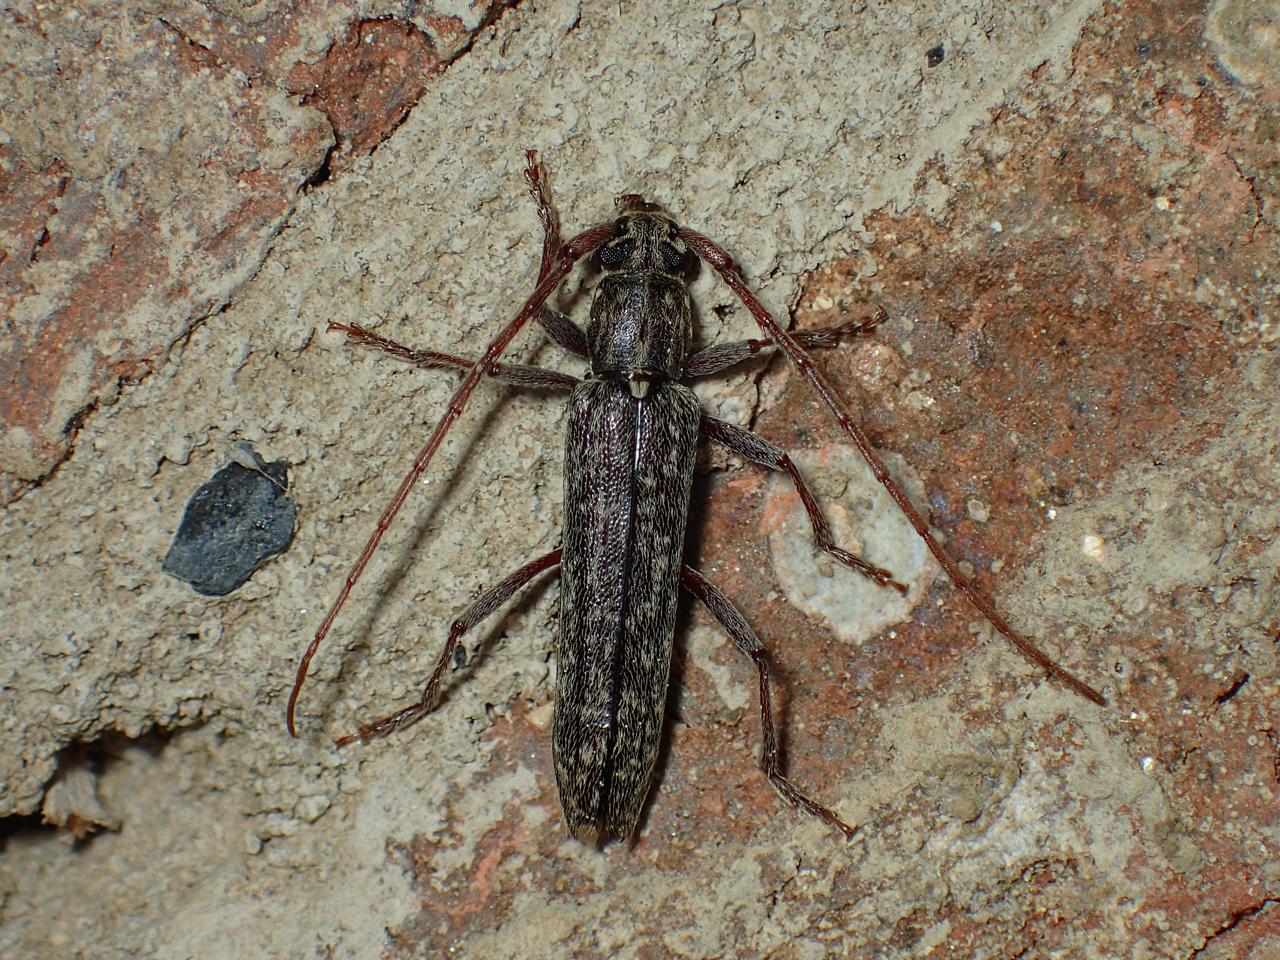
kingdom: Animalia
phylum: Arthropoda
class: Insecta
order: Coleoptera
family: Cerambycidae
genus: Anelaphus
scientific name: Anelaphus villosus
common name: Twig pruner
